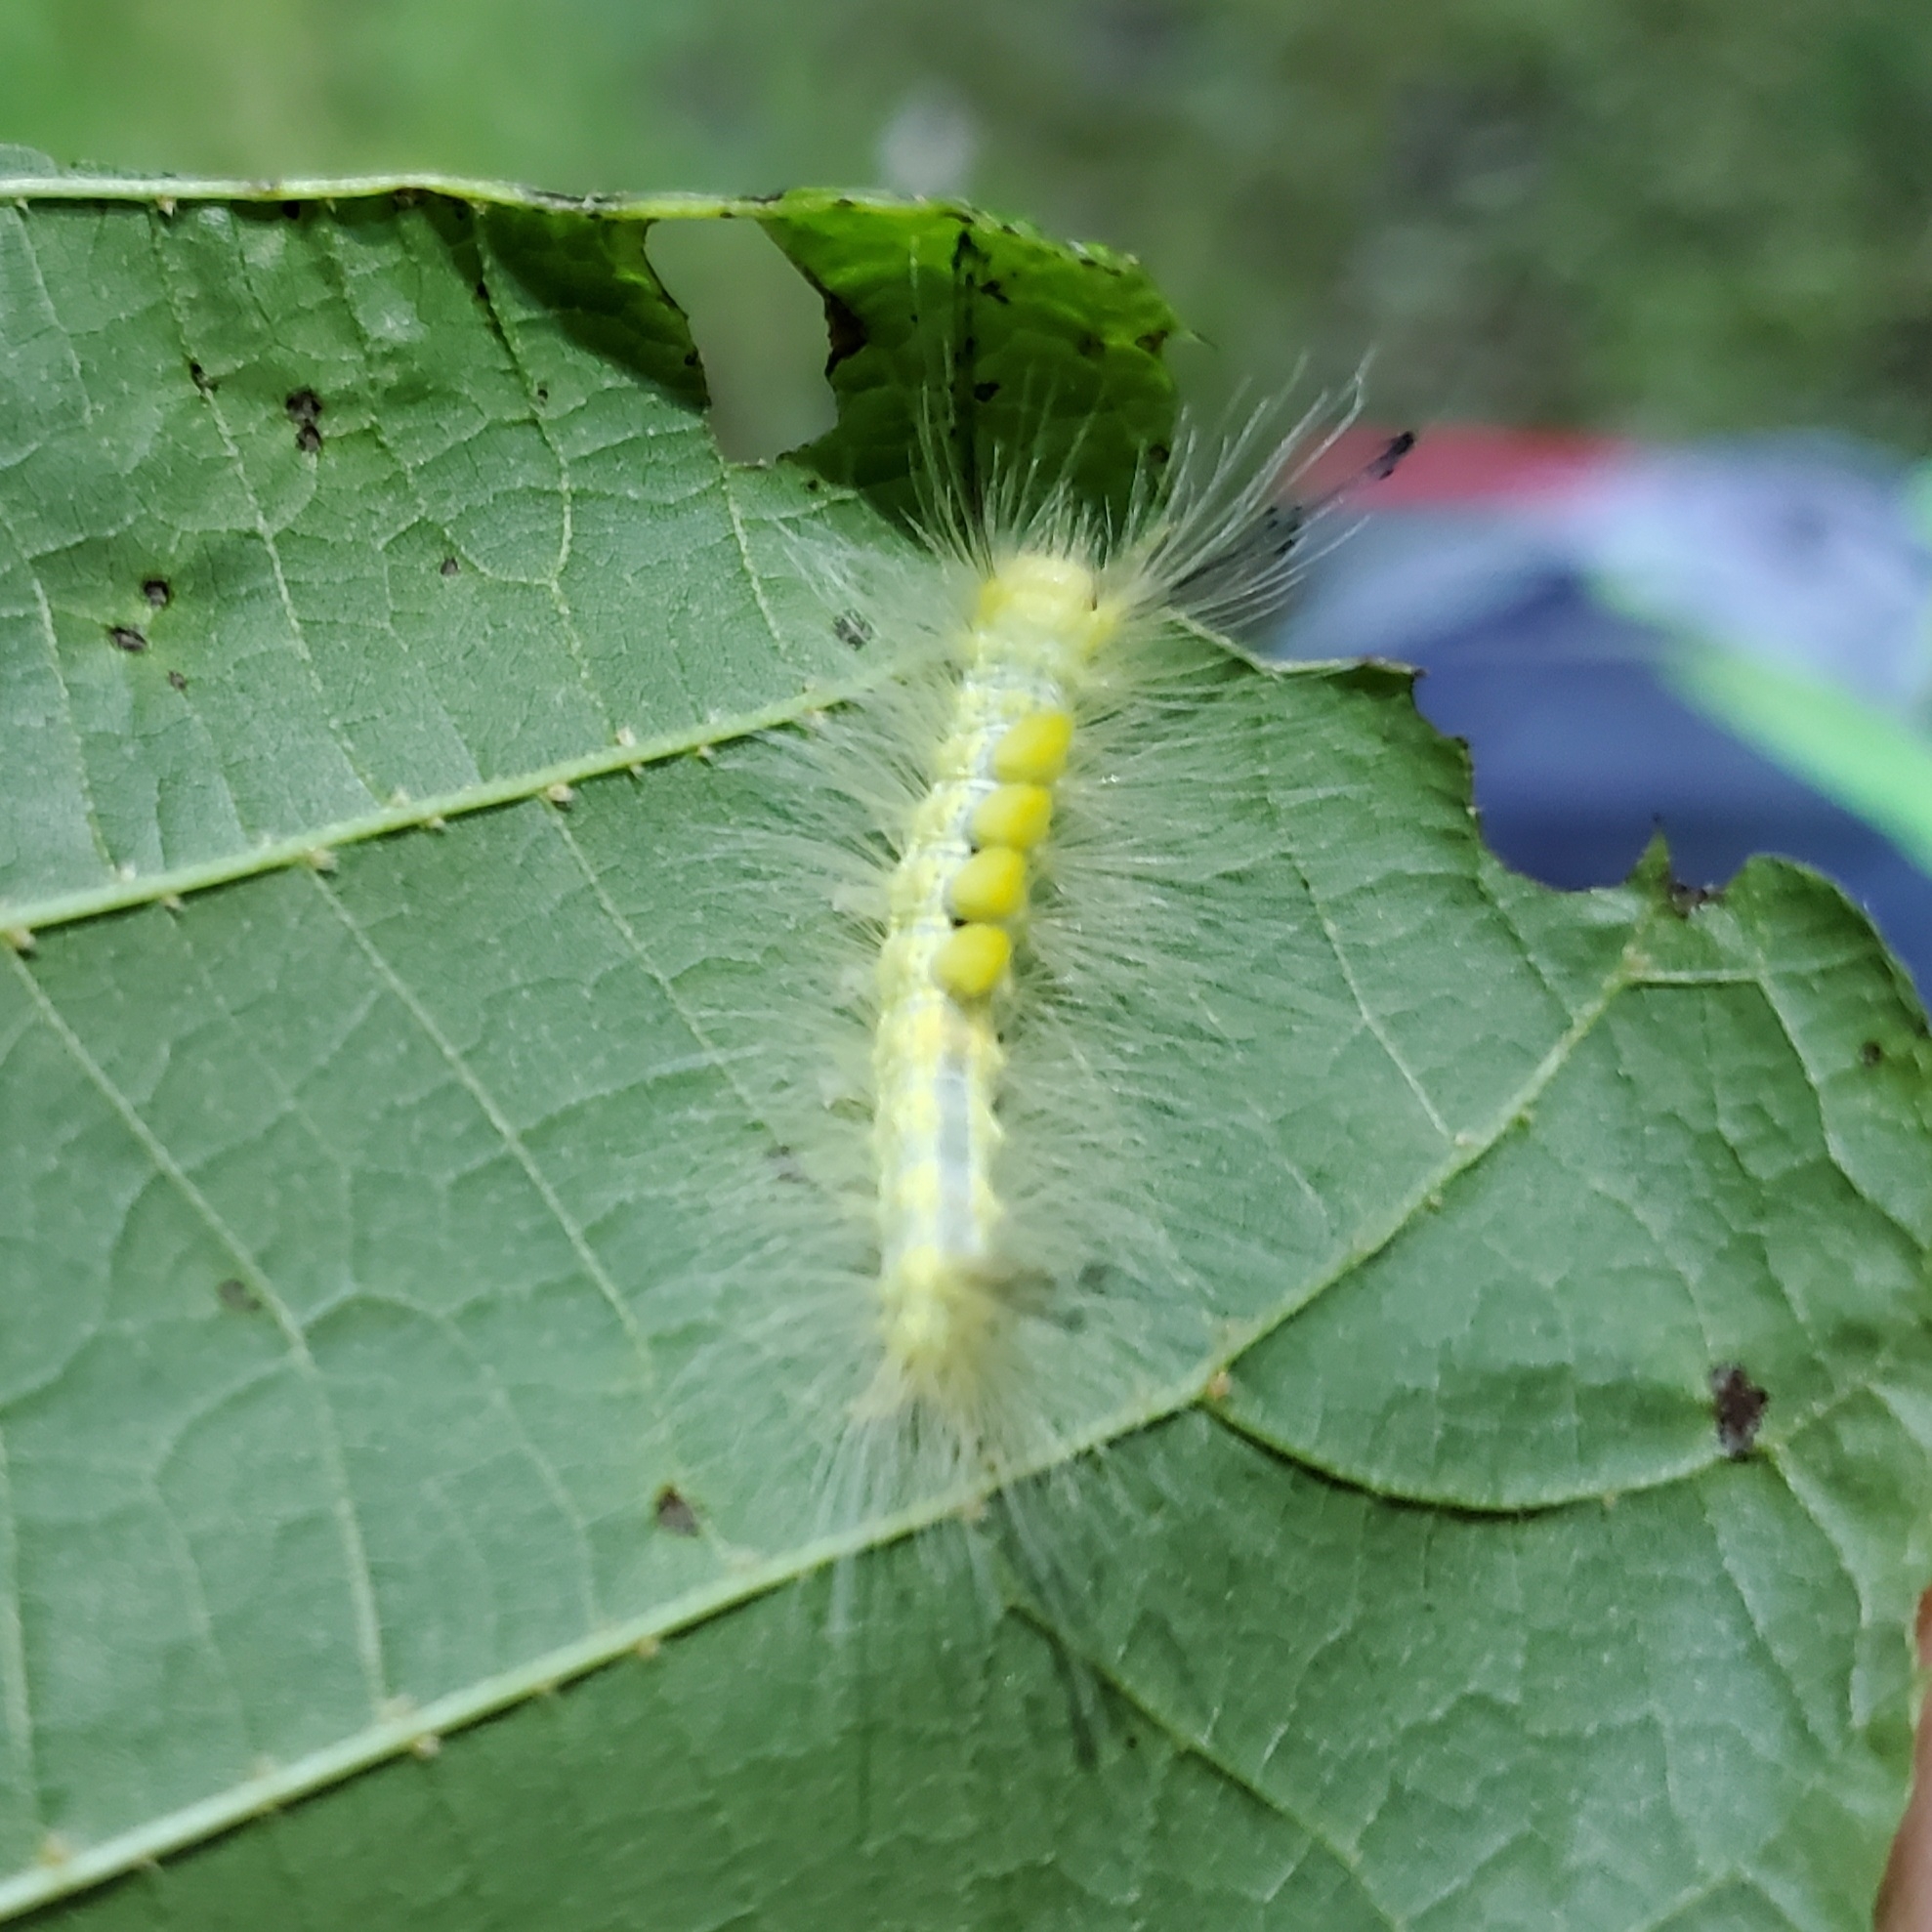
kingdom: Animalia
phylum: Arthropoda
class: Insecta
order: Lepidoptera
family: Erebidae
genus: Orgyia
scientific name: Orgyia definita
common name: Definite tussock moth
